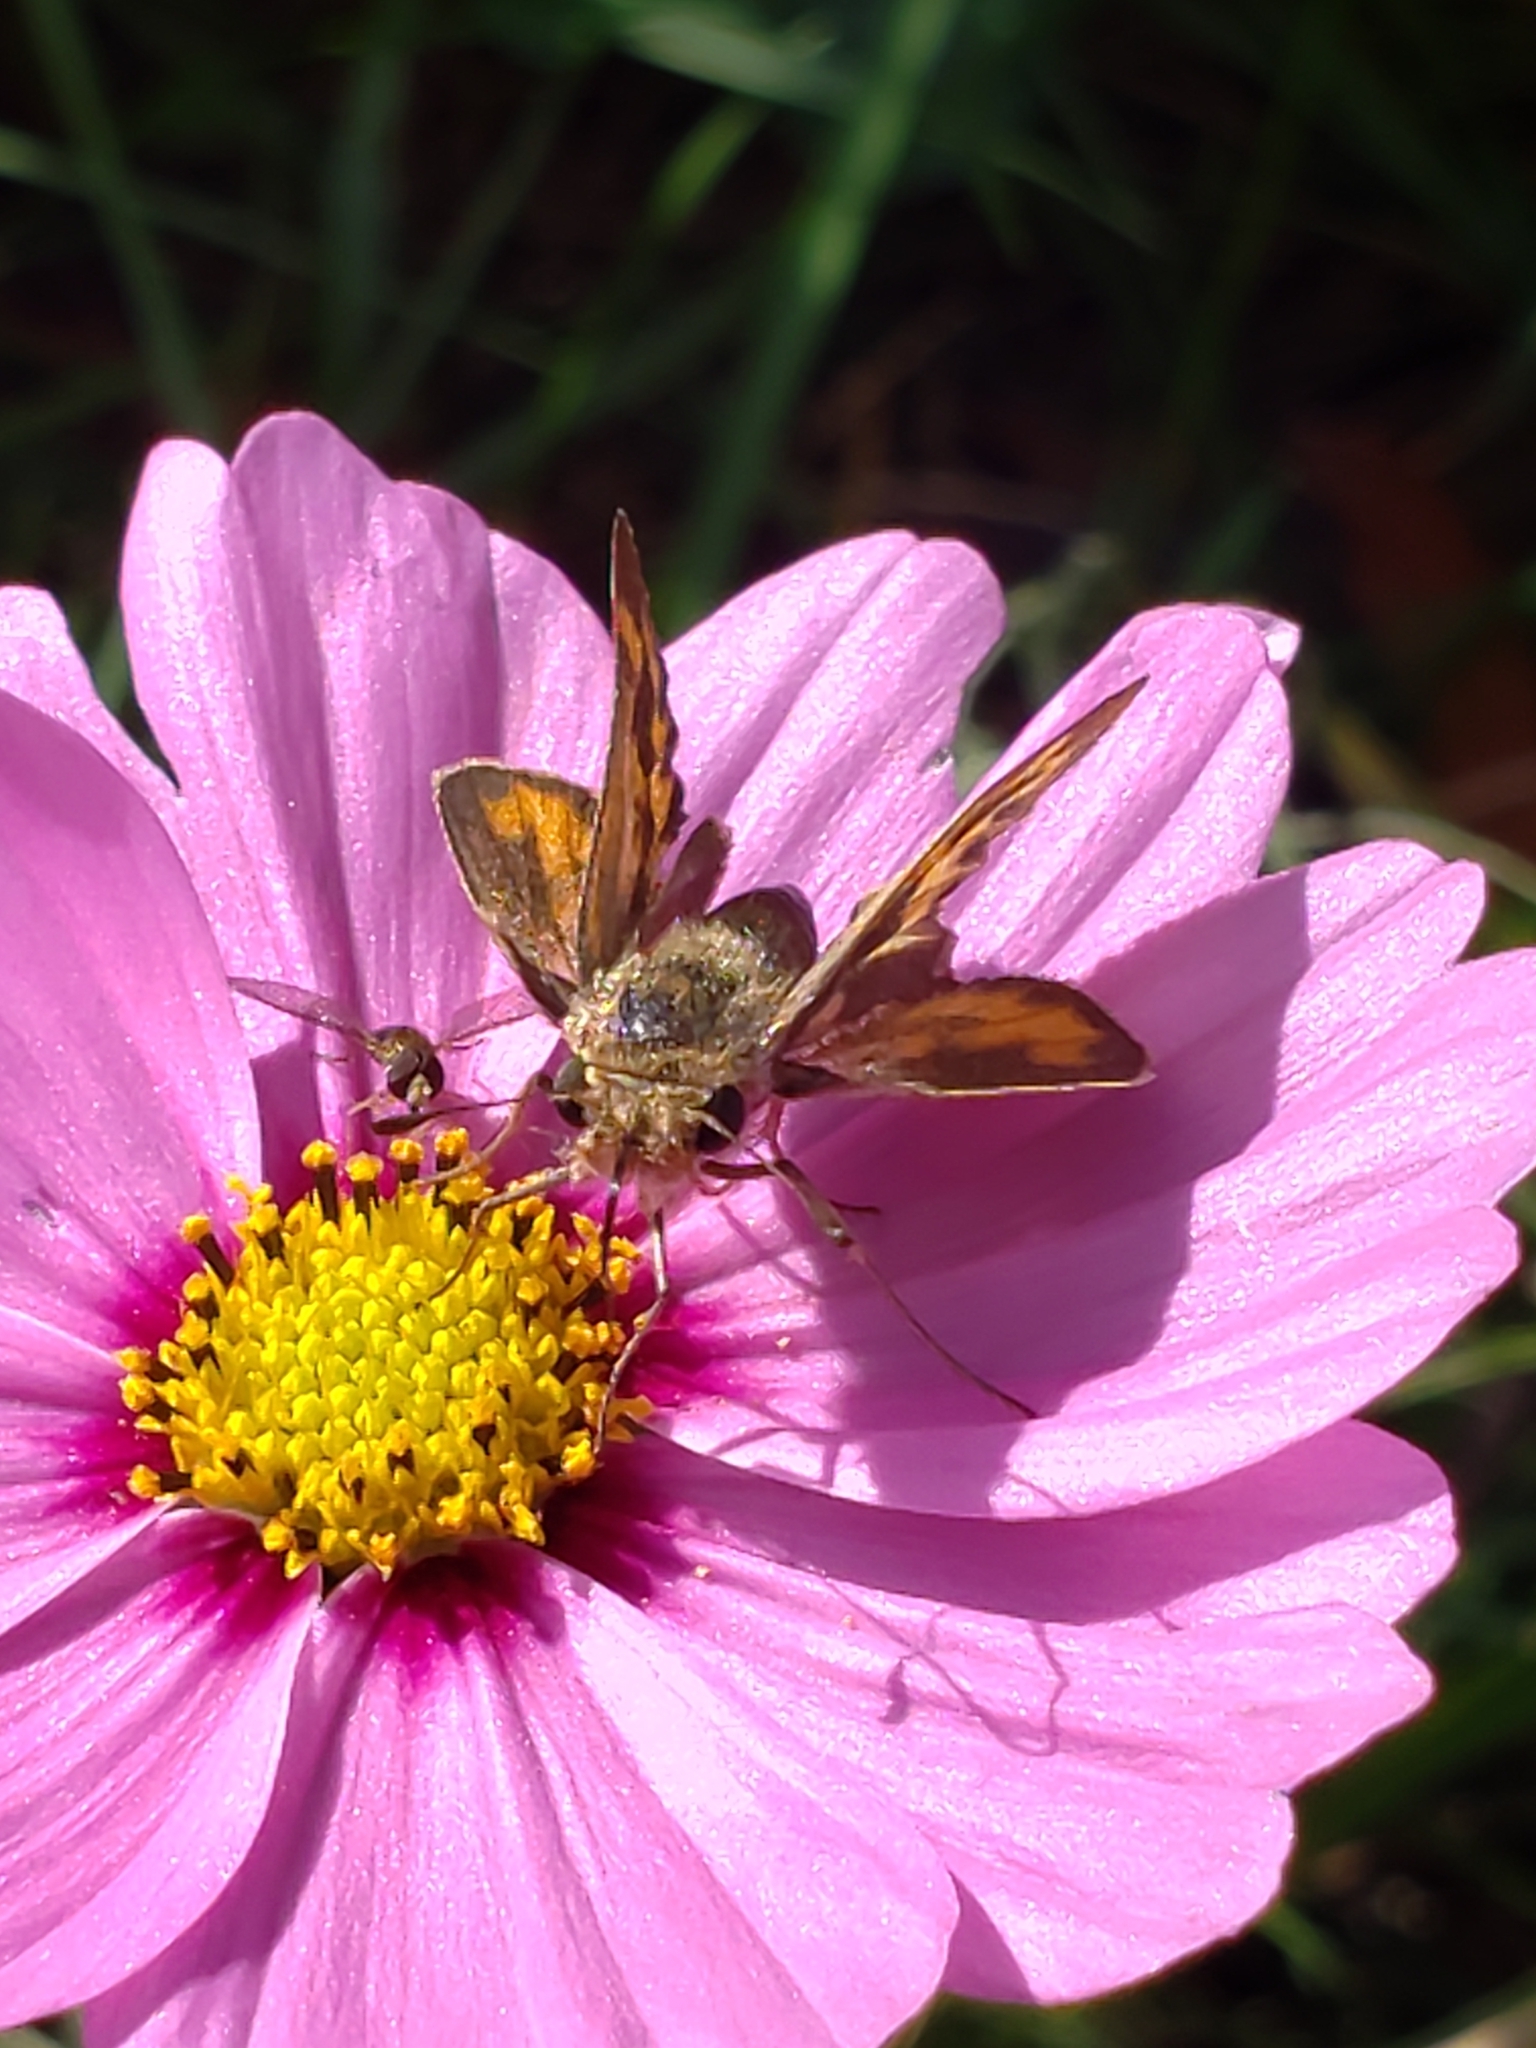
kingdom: Animalia
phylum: Arthropoda
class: Insecta
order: Lepidoptera
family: Hesperiidae
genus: Hylephila
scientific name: Hylephila phyleus
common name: Fiery skipper
